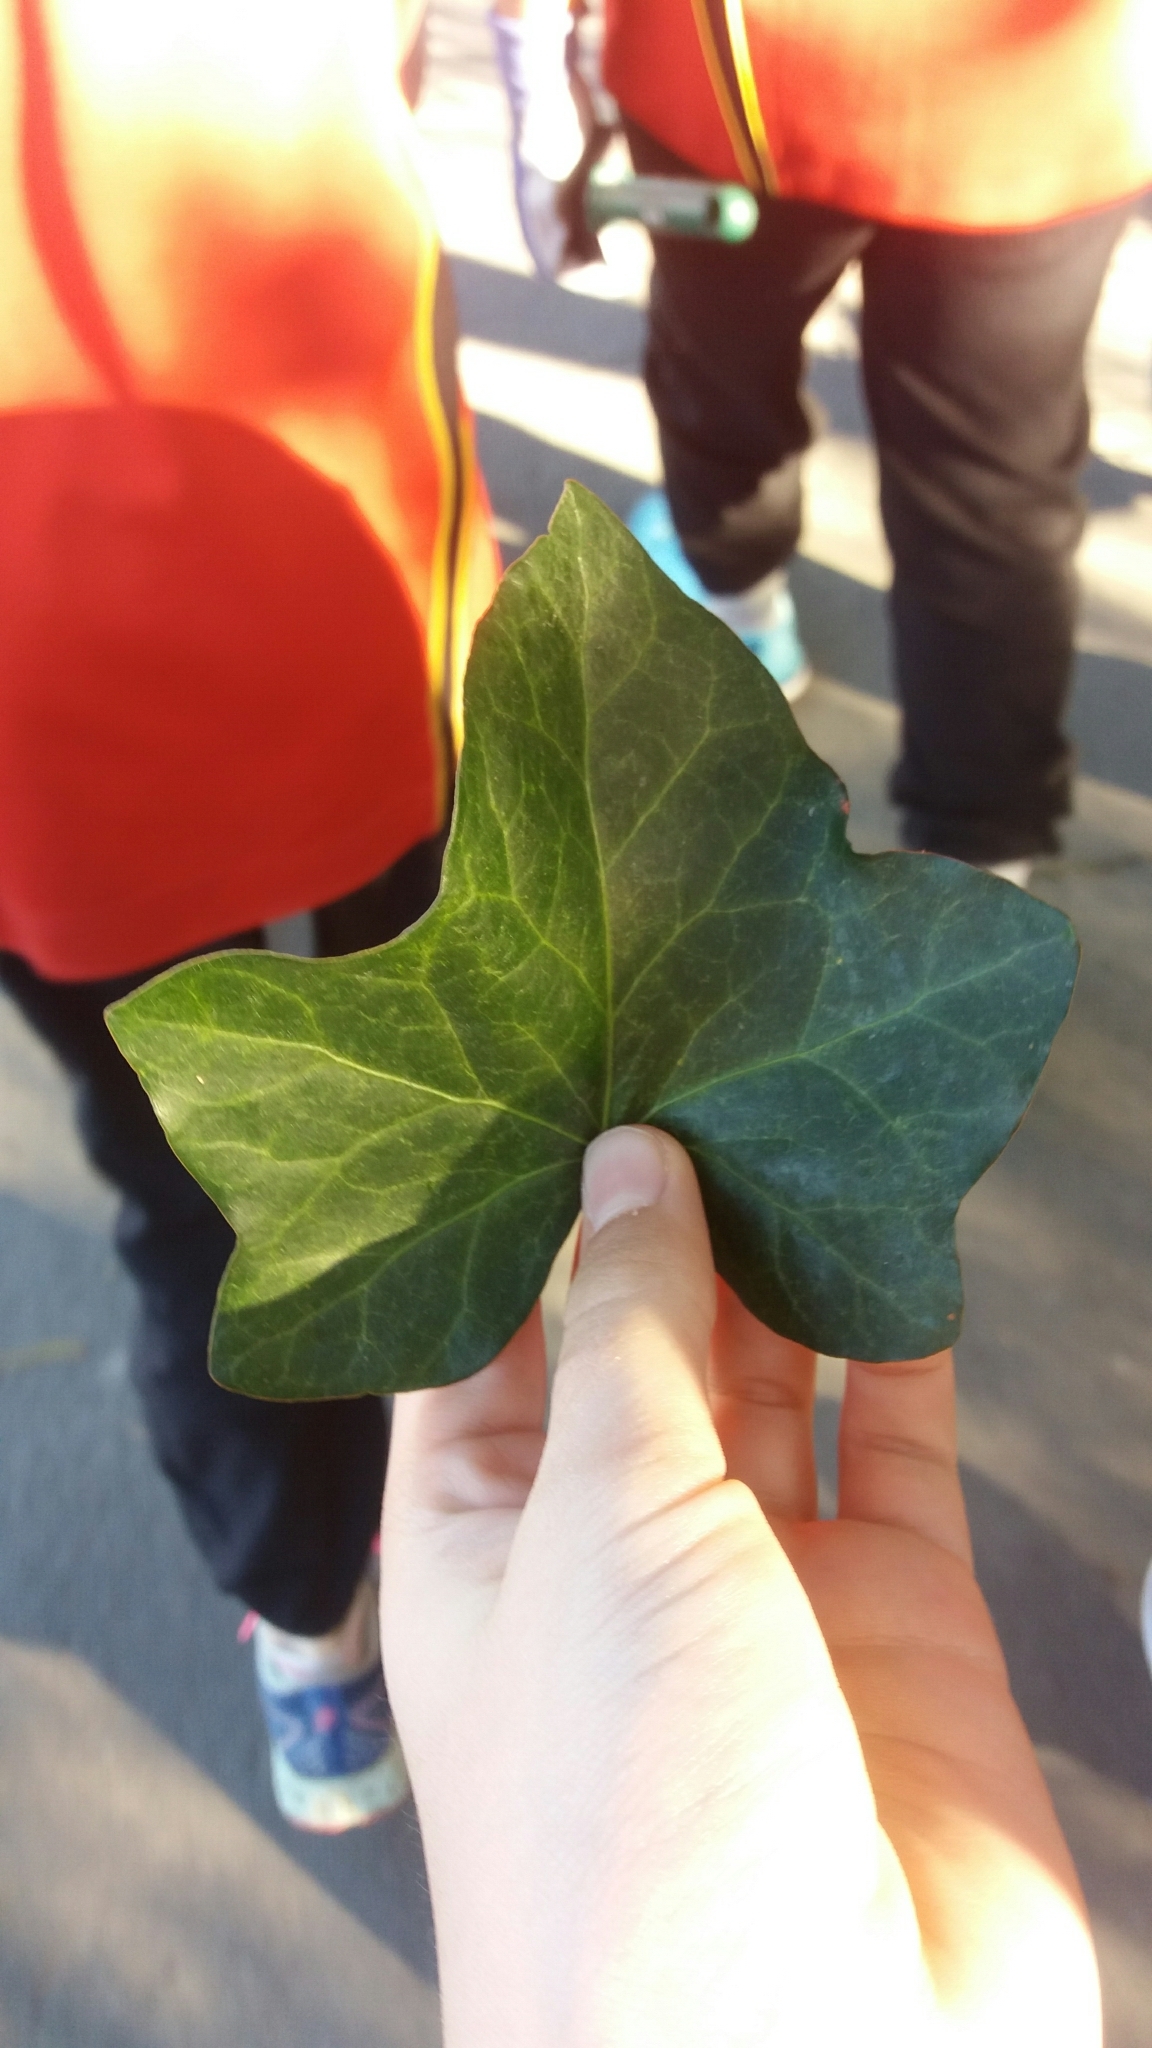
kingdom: Plantae
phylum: Tracheophyta
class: Magnoliopsida
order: Apiales
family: Araliaceae
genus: Hedera
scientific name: Hedera helix
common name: Ivy
